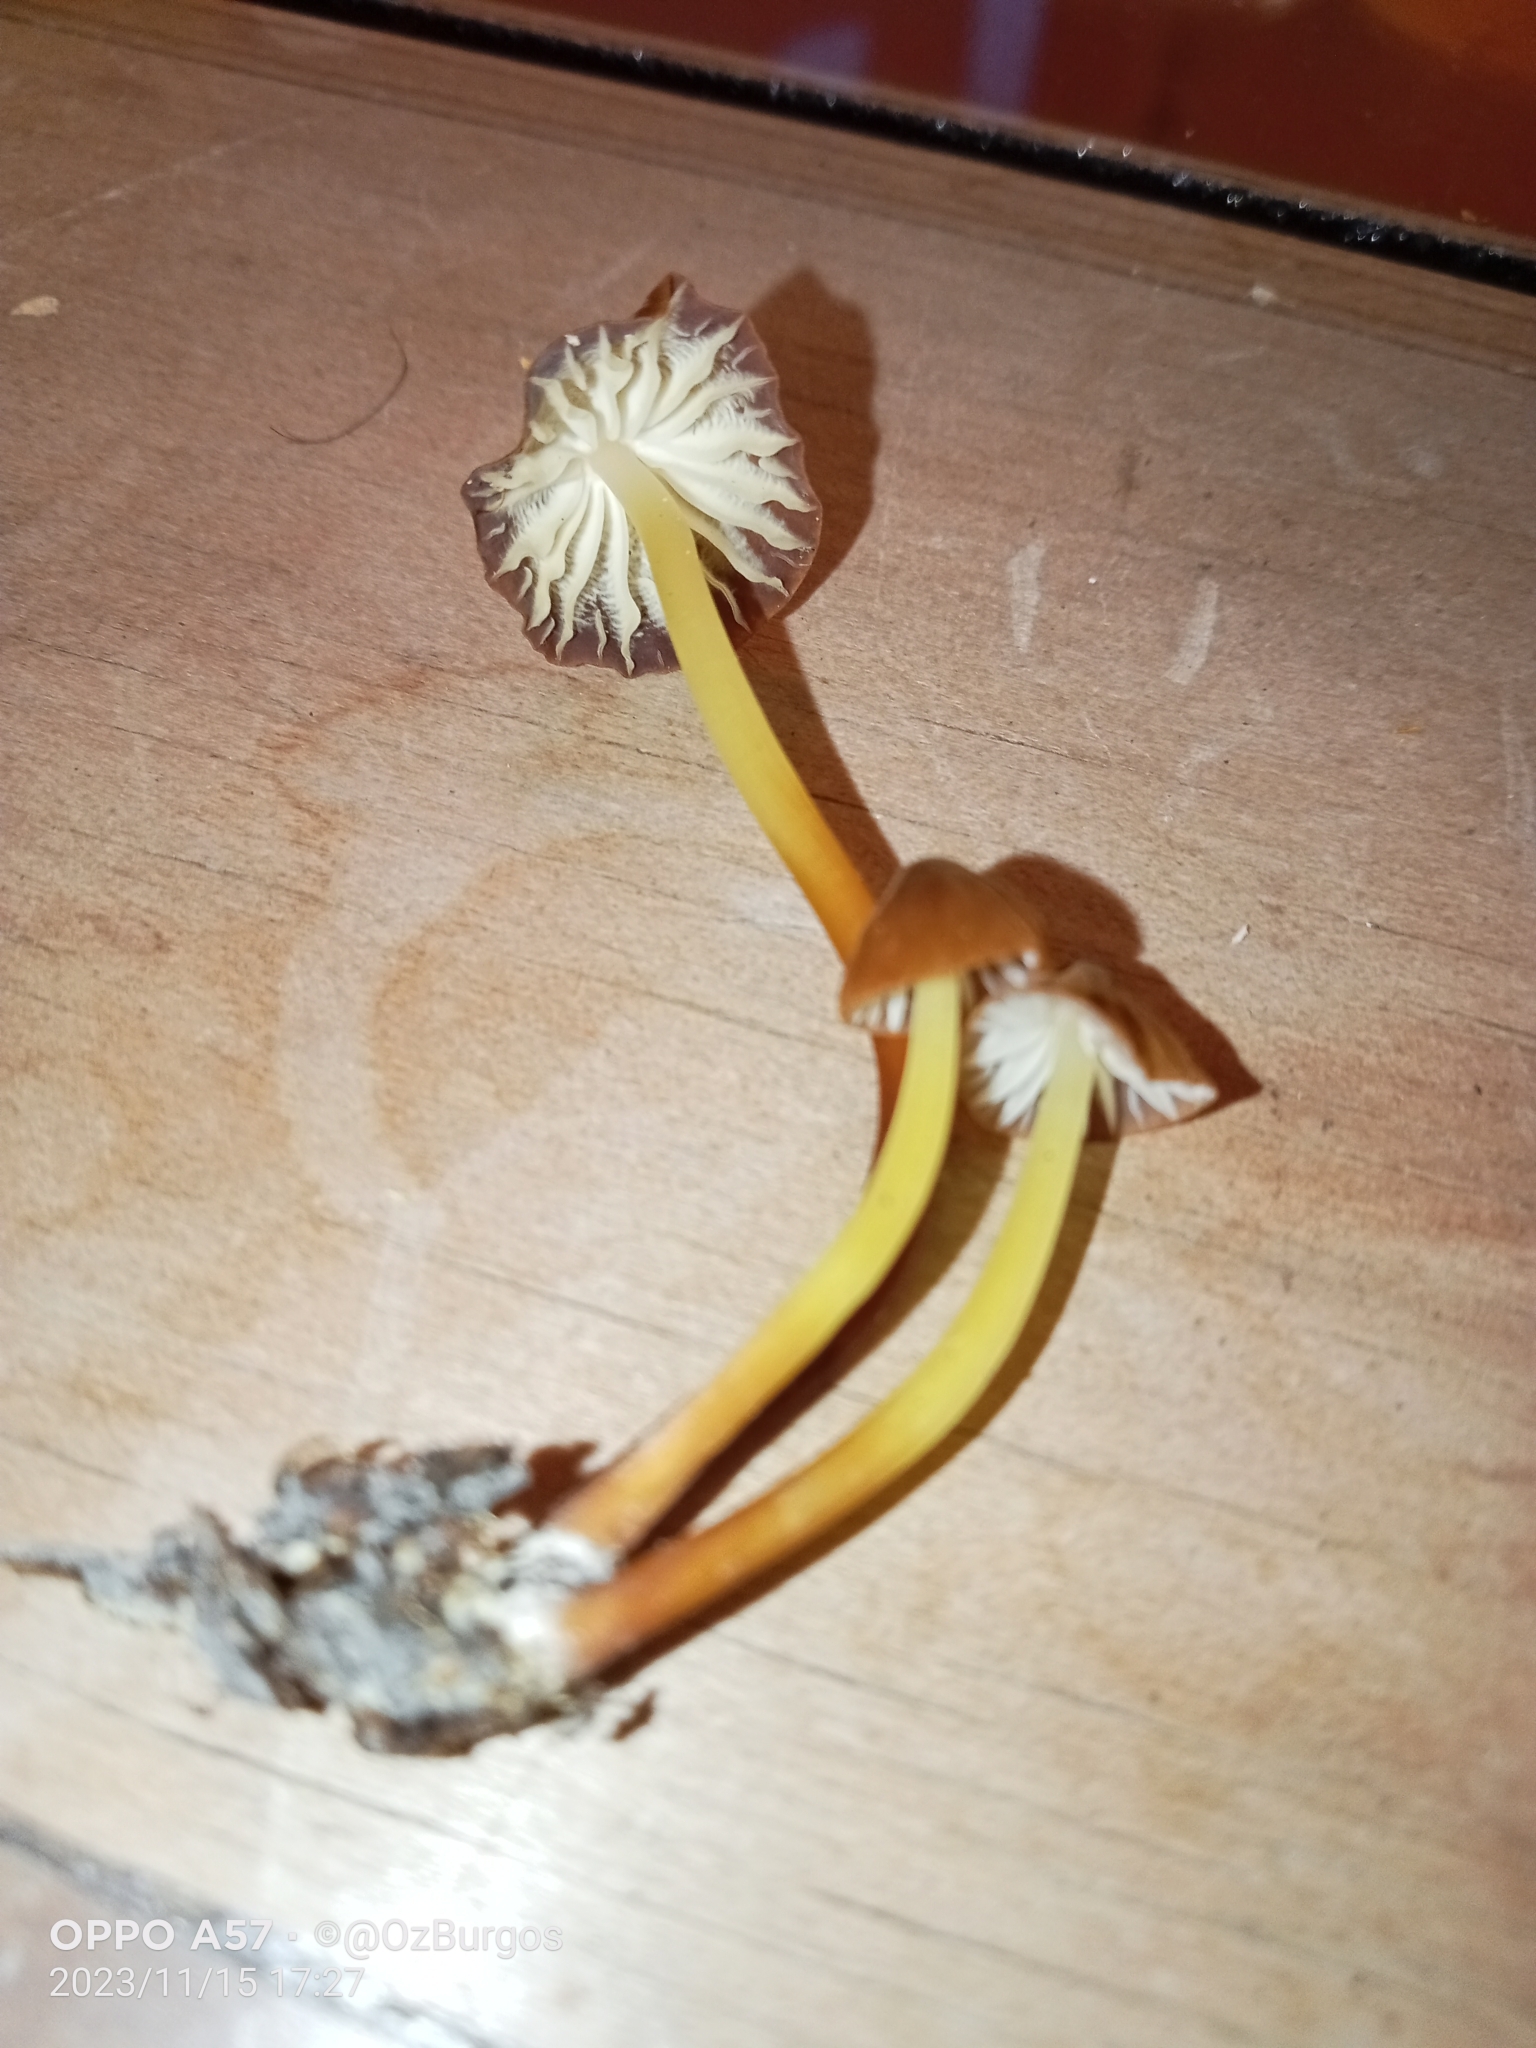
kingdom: Fungi
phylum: Basidiomycota
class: Agaricomycetes
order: Agaricales
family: Marasmiaceae
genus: Marasmius
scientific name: Marasmius berteroi
